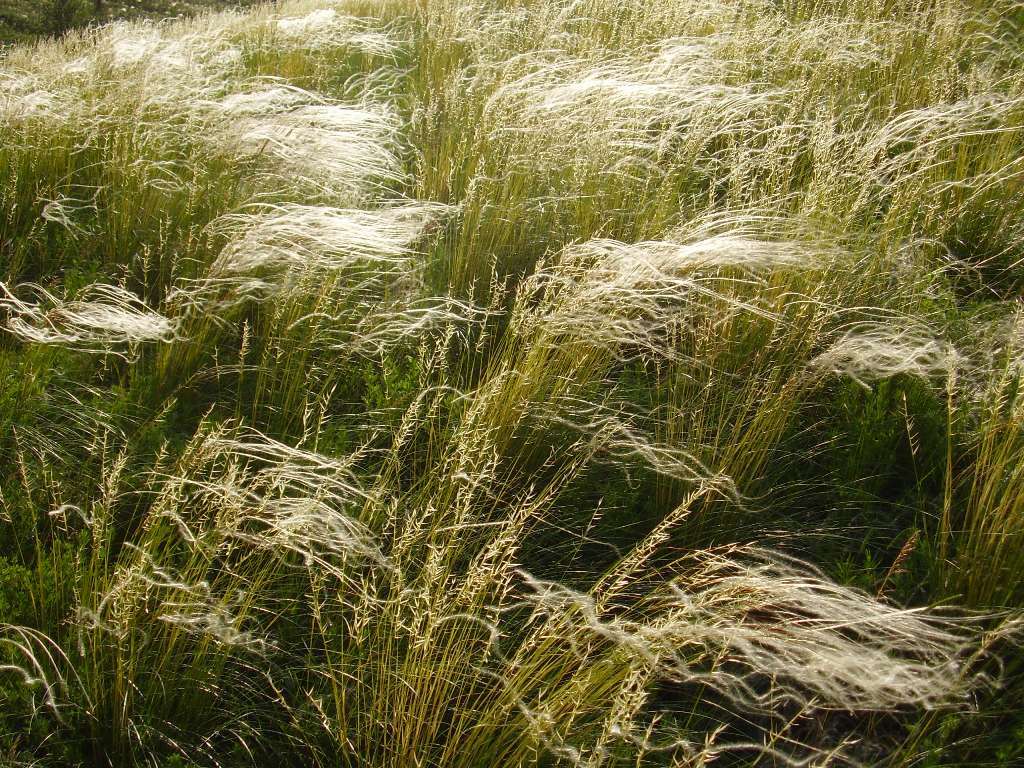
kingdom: Plantae
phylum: Tracheophyta
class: Liliopsida
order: Poales
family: Poaceae
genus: Stipa
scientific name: Stipa pennata
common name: European feather grass
